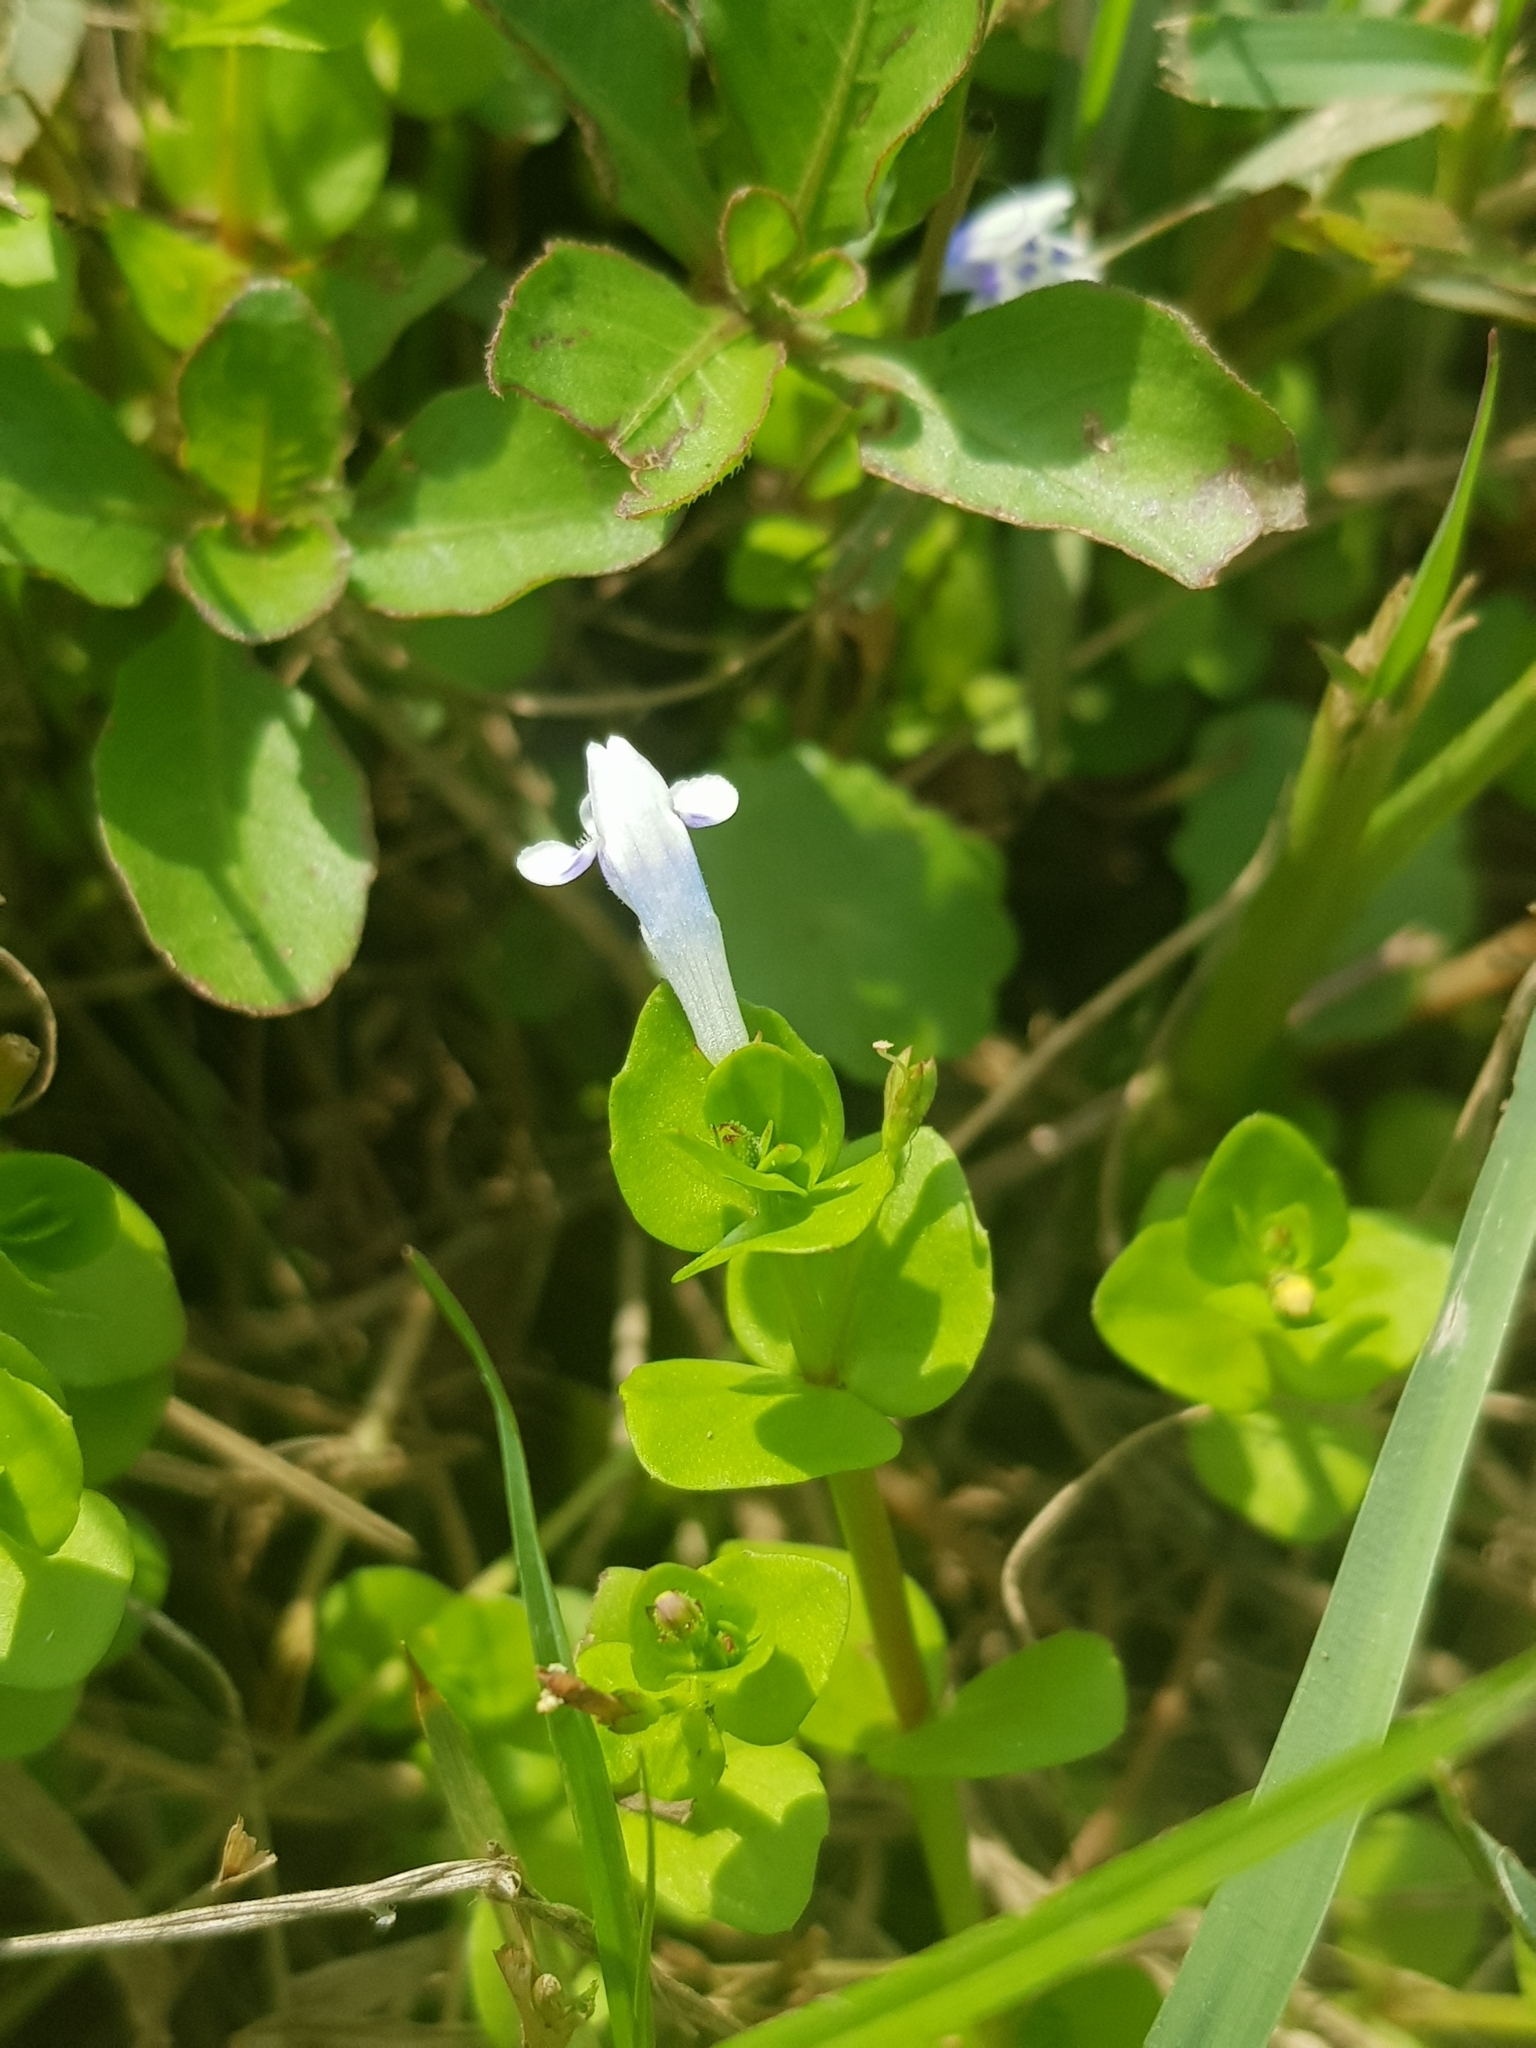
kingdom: Plantae
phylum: Tracheophyta
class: Magnoliopsida
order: Lamiales
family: Linderniaceae
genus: Lindernia
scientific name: Lindernia rotundifolia
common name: Baby’s tears
